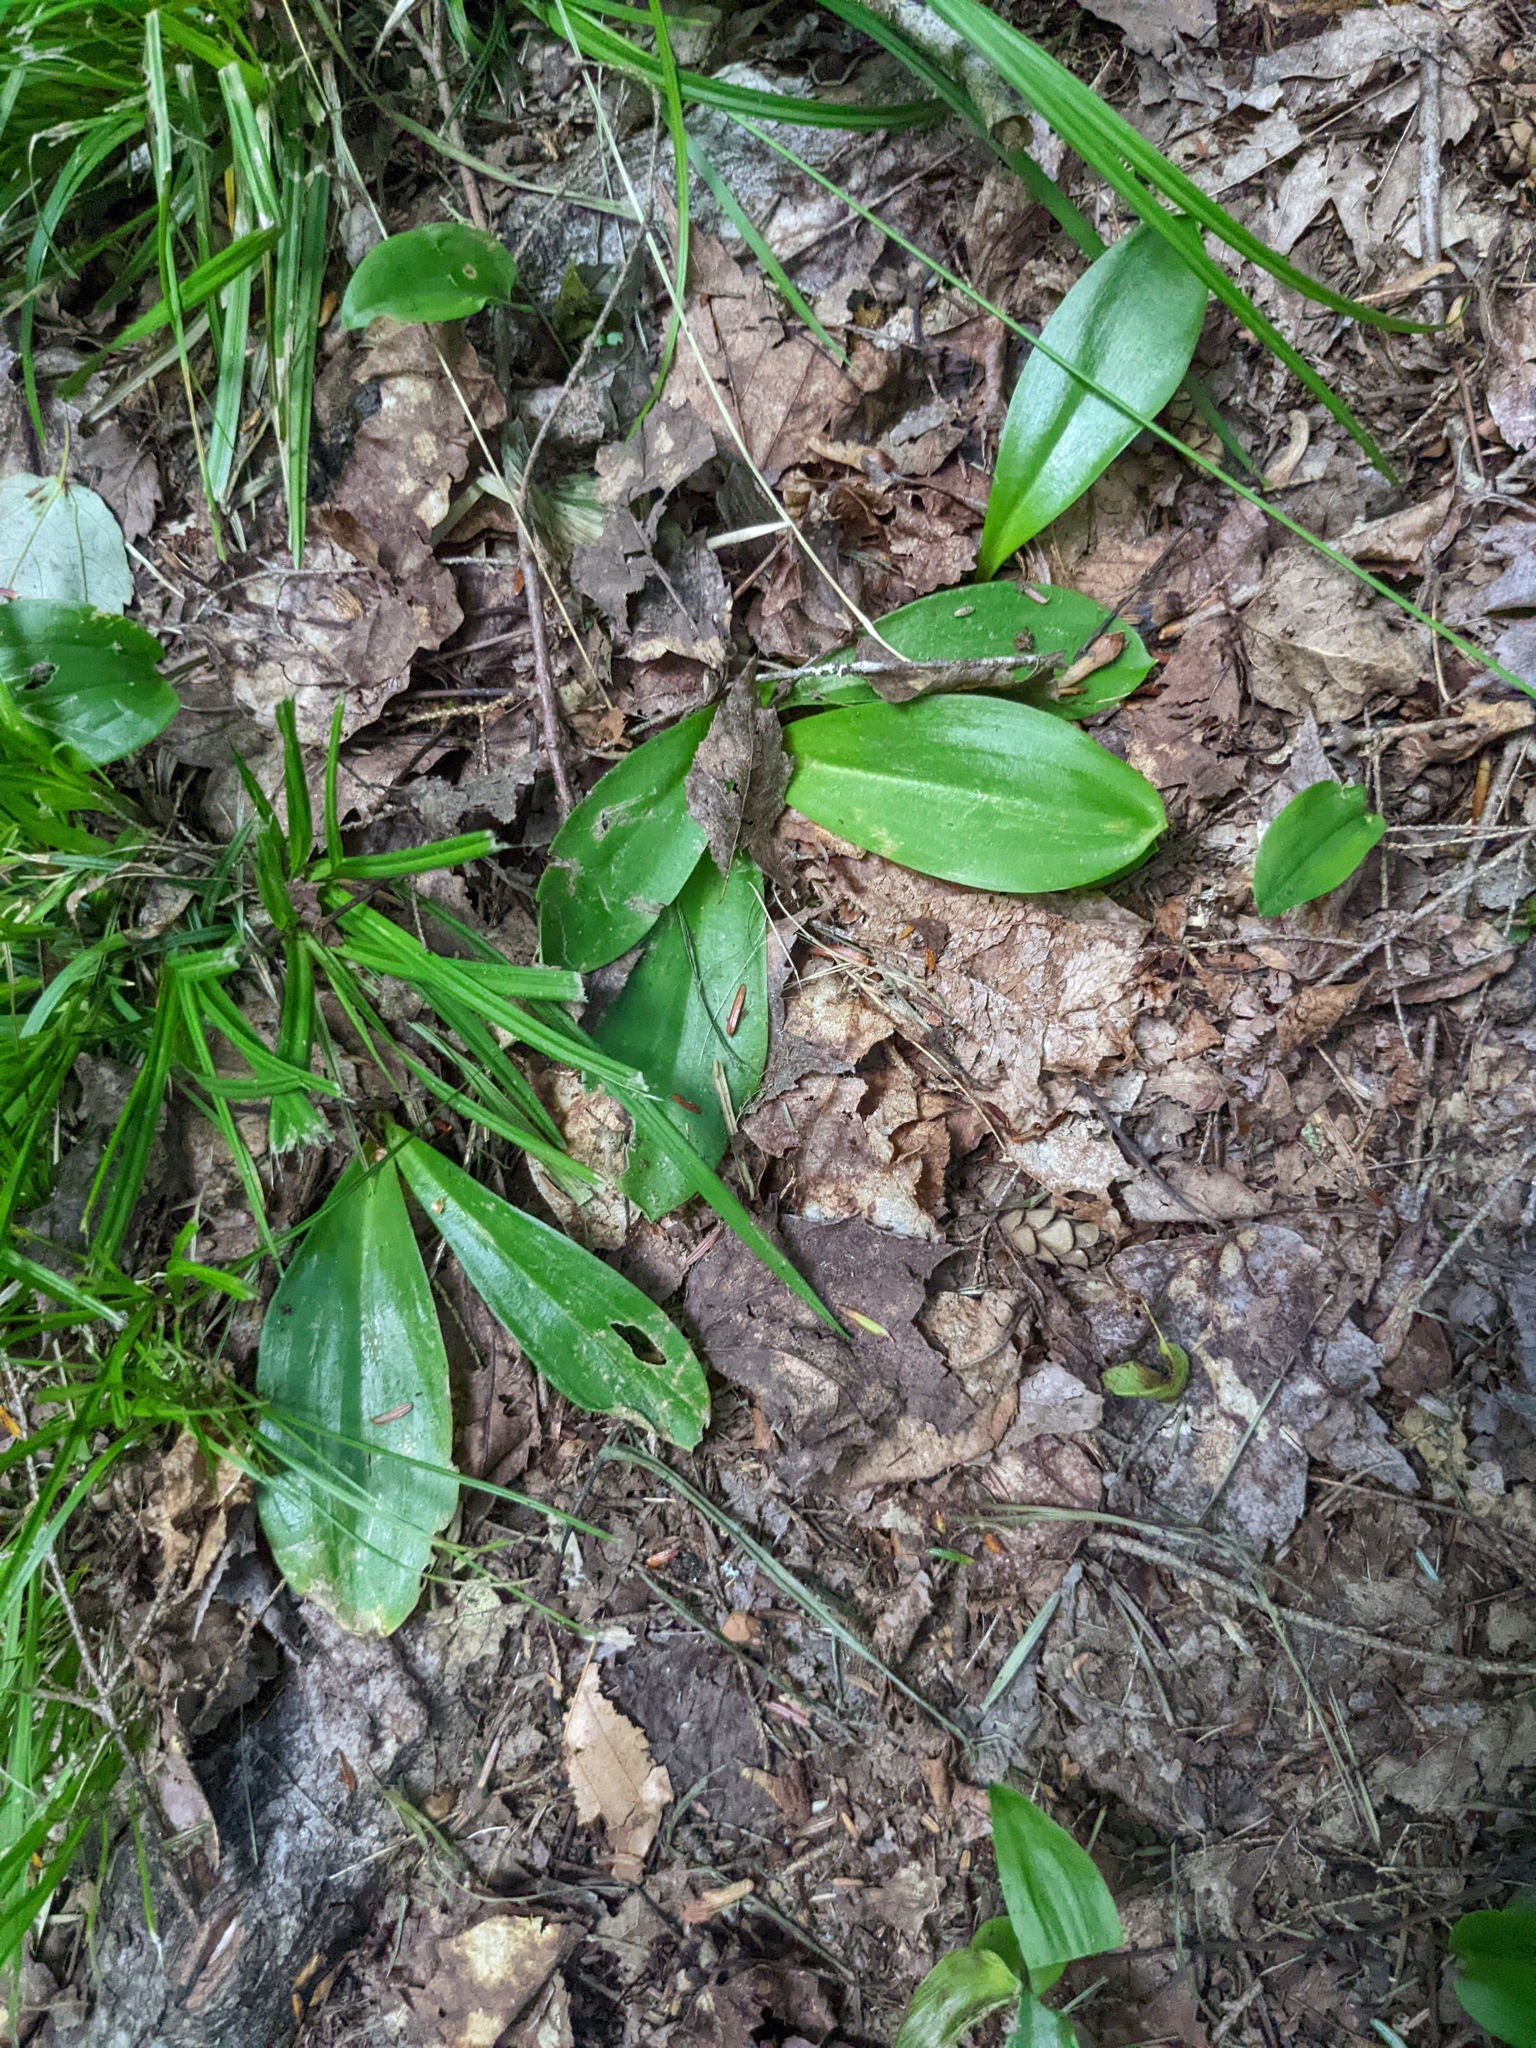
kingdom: Plantae
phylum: Tracheophyta
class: Liliopsida
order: Liliales
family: Liliaceae
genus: Clintonia
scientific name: Clintonia borealis
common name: Yellow clintonia
